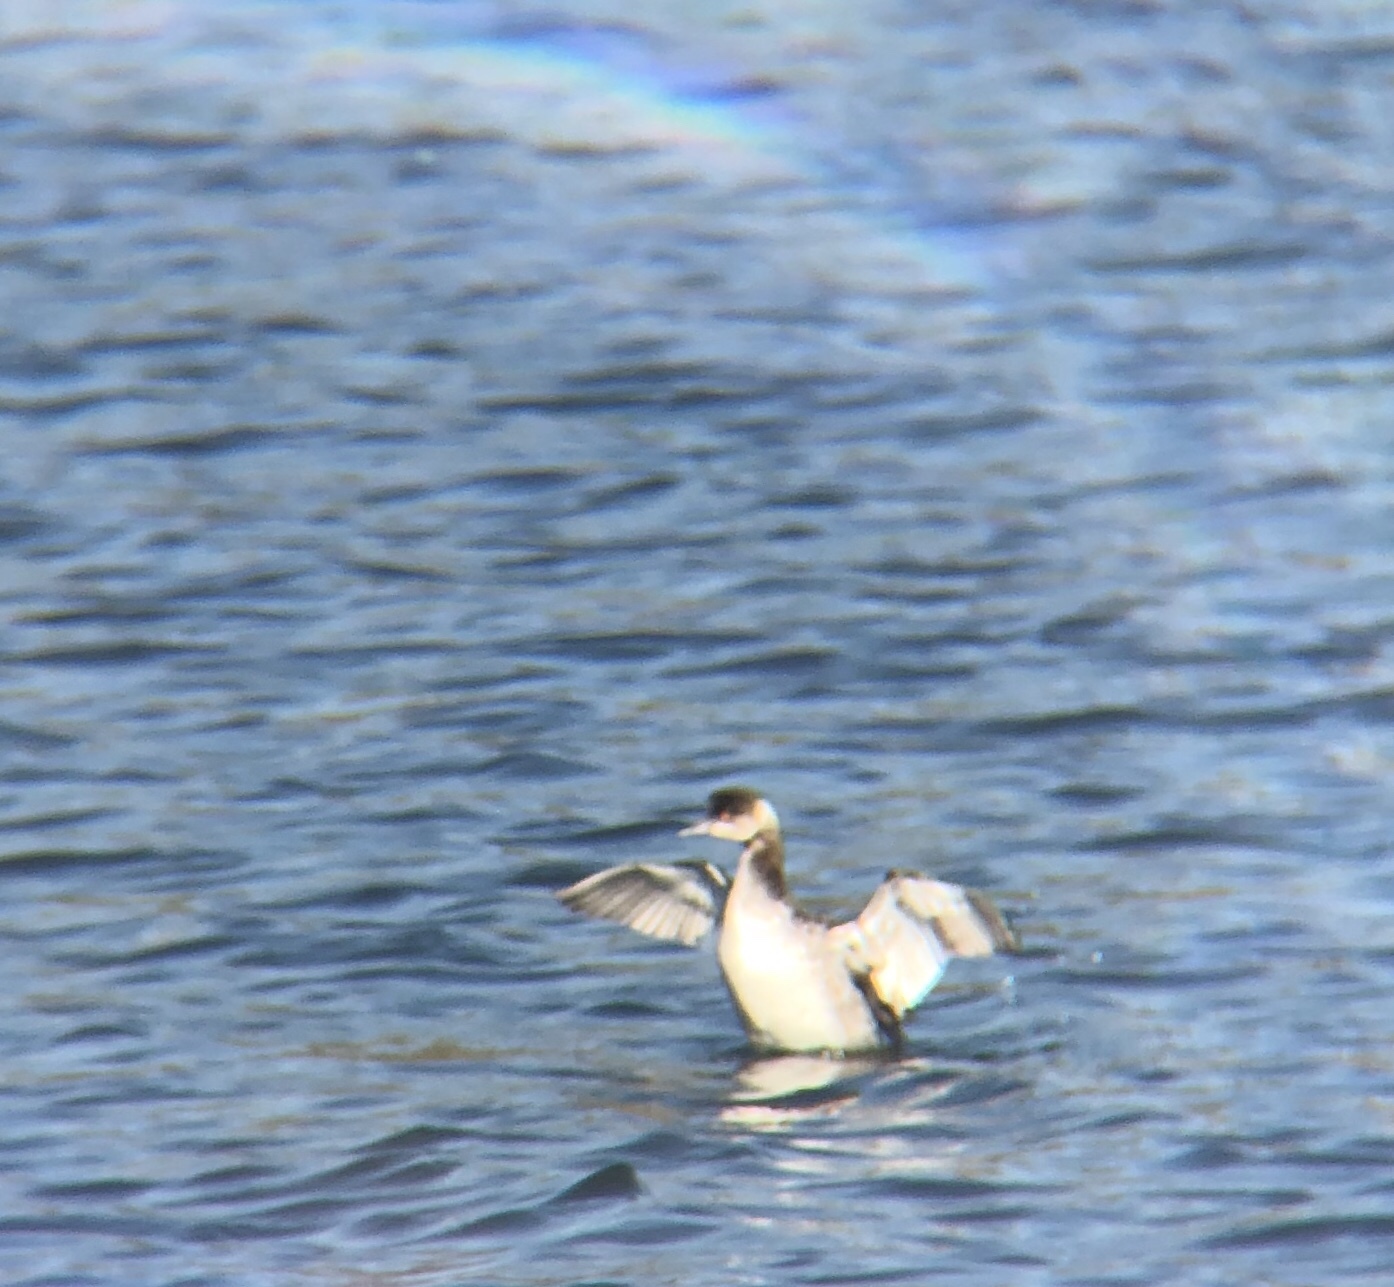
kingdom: Animalia
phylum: Chordata
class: Aves
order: Podicipediformes
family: Podicipedidae
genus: Podiceps
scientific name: Podiceps auritus
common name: Horned grebe
